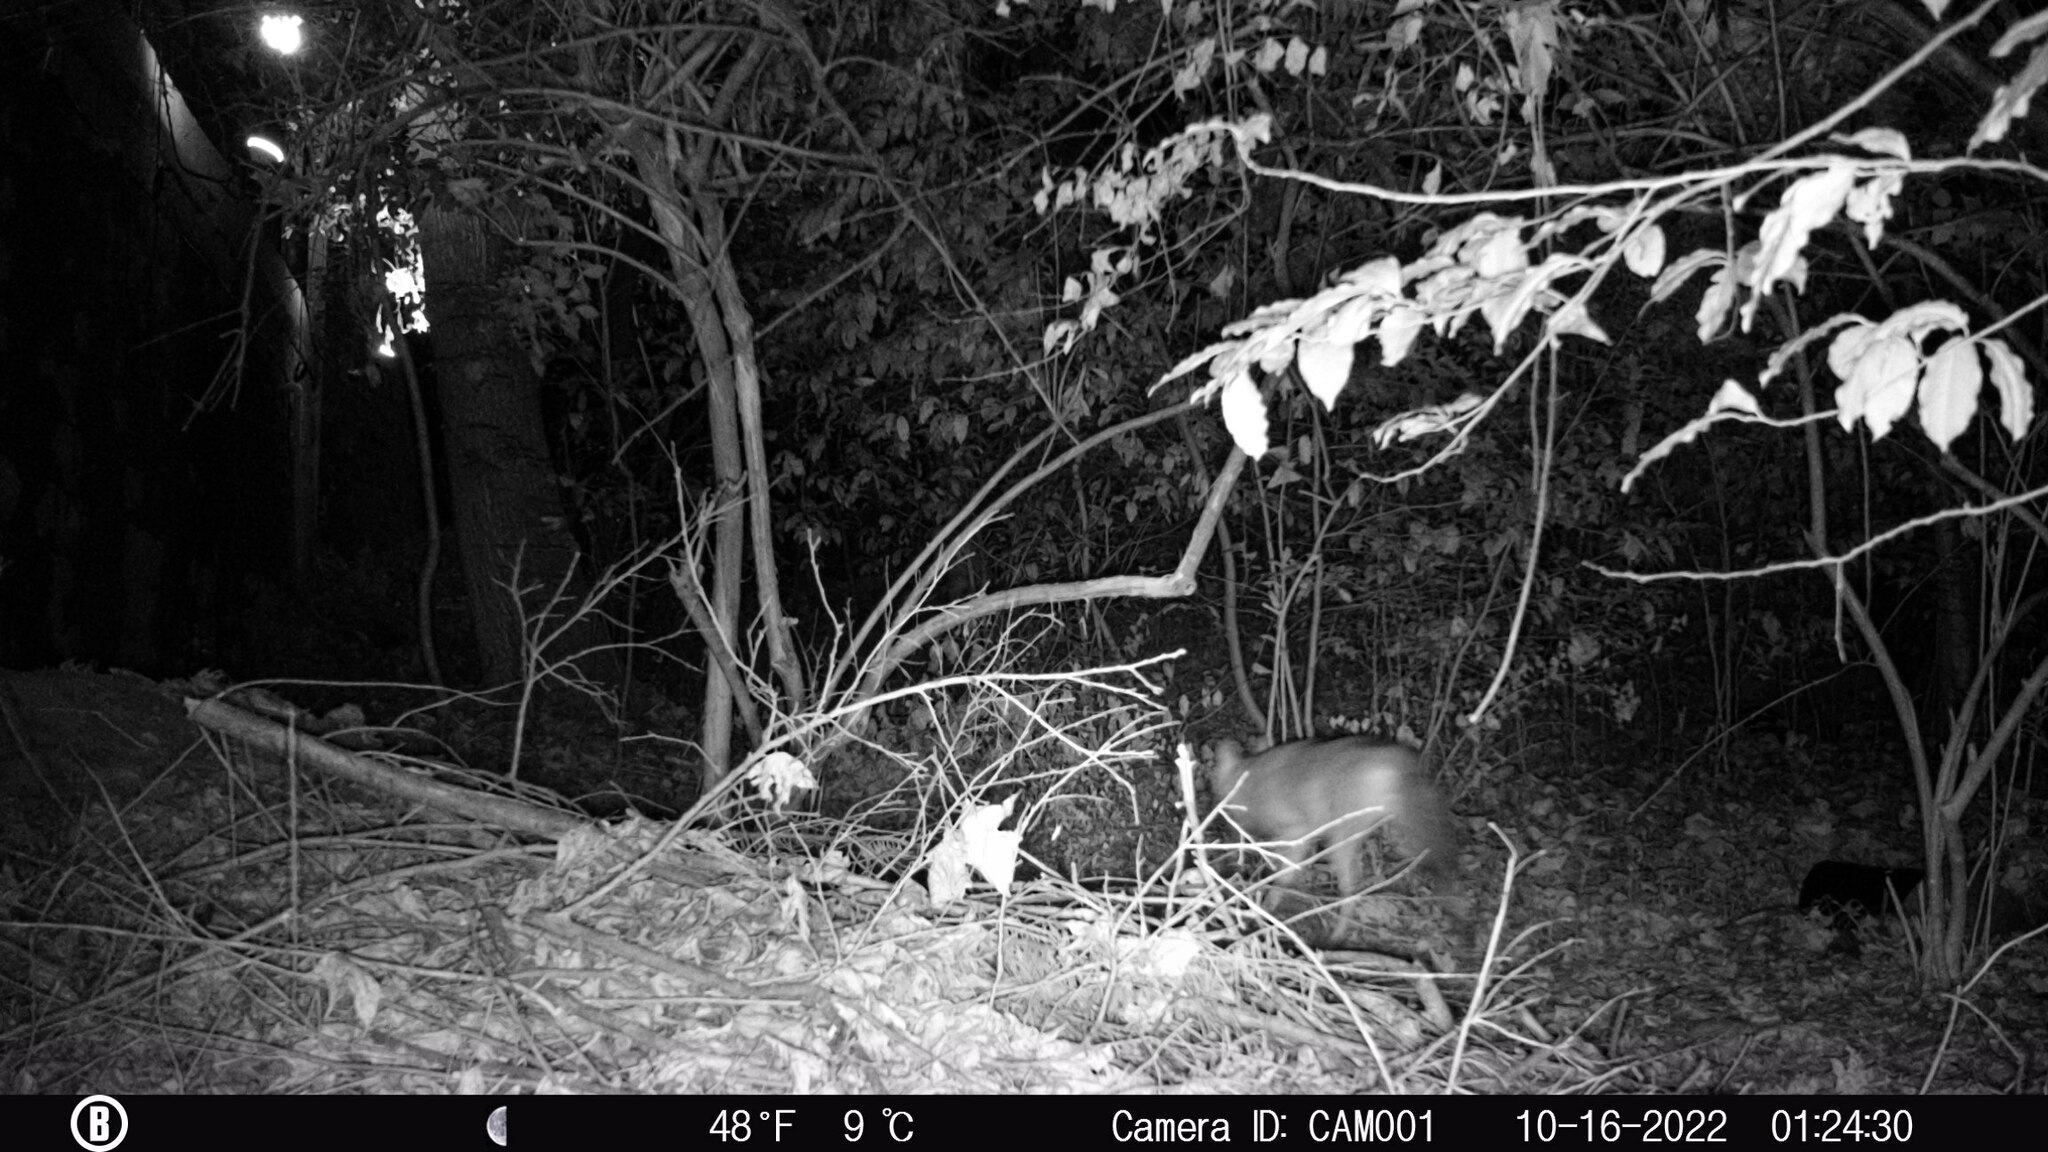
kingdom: Animalia
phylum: Chordata
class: Mammalia
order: Carnivora
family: Canidae
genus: Canis
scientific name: Canis latrans
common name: Coyote
